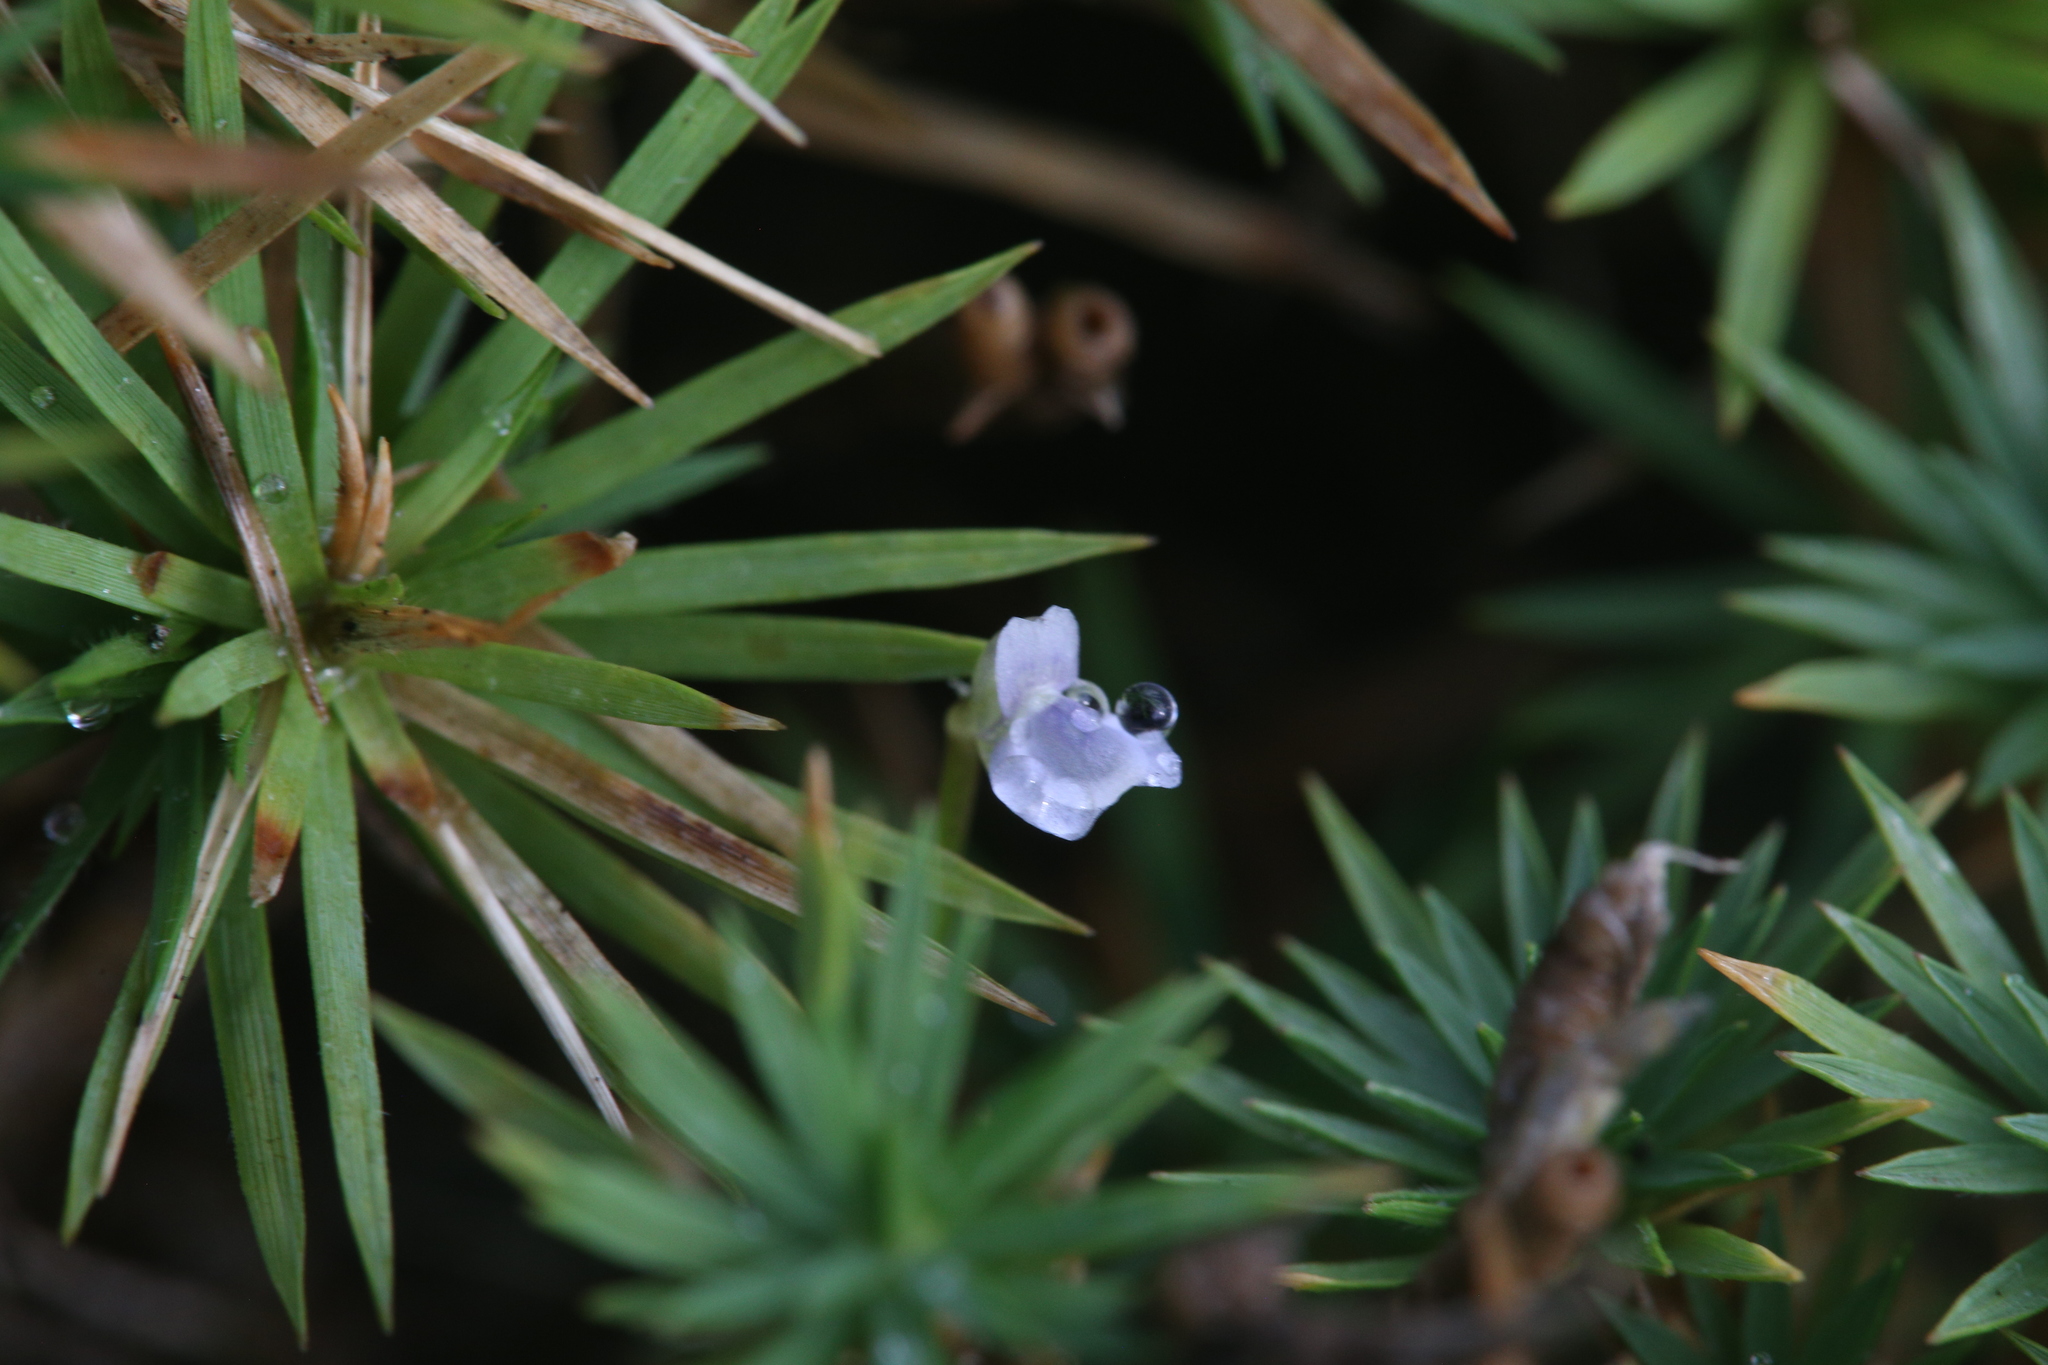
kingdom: Plantae
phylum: Tracheophyta
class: Magnoliopsida
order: Lamiales
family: Lentibulariaceae
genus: Utricularia
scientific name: Utricularia uliginosa
